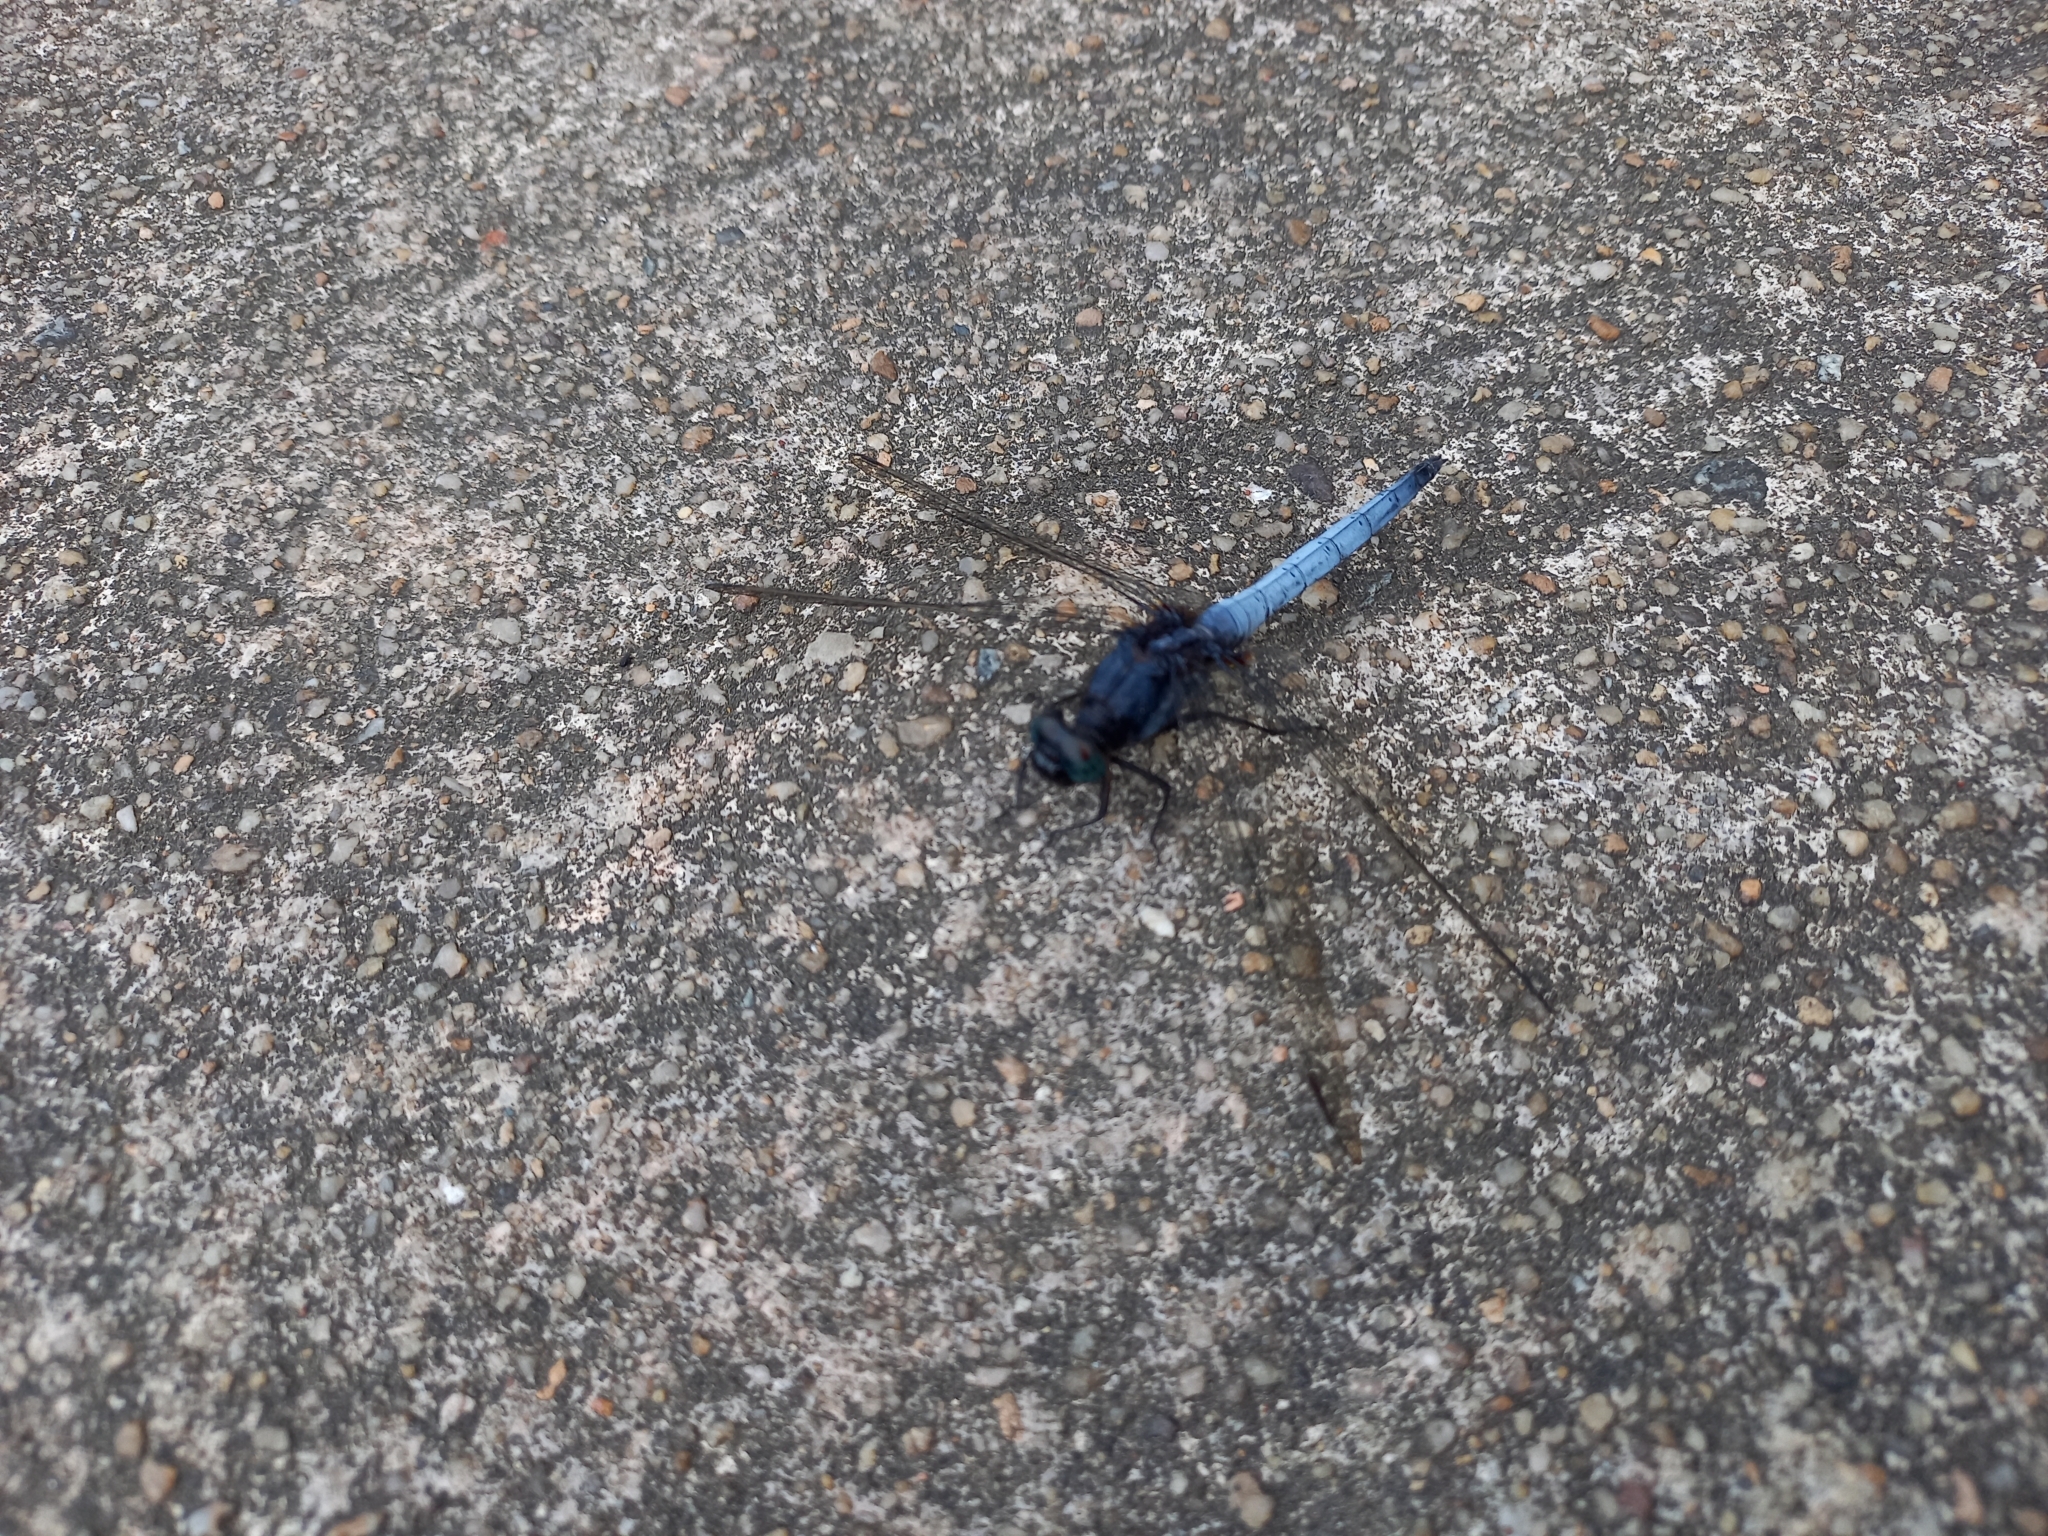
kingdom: Animalia
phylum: Arthropoda
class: Insecta
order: Odonata
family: Libellulidae
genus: Orthetrum
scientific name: Orthetrum glaucum
